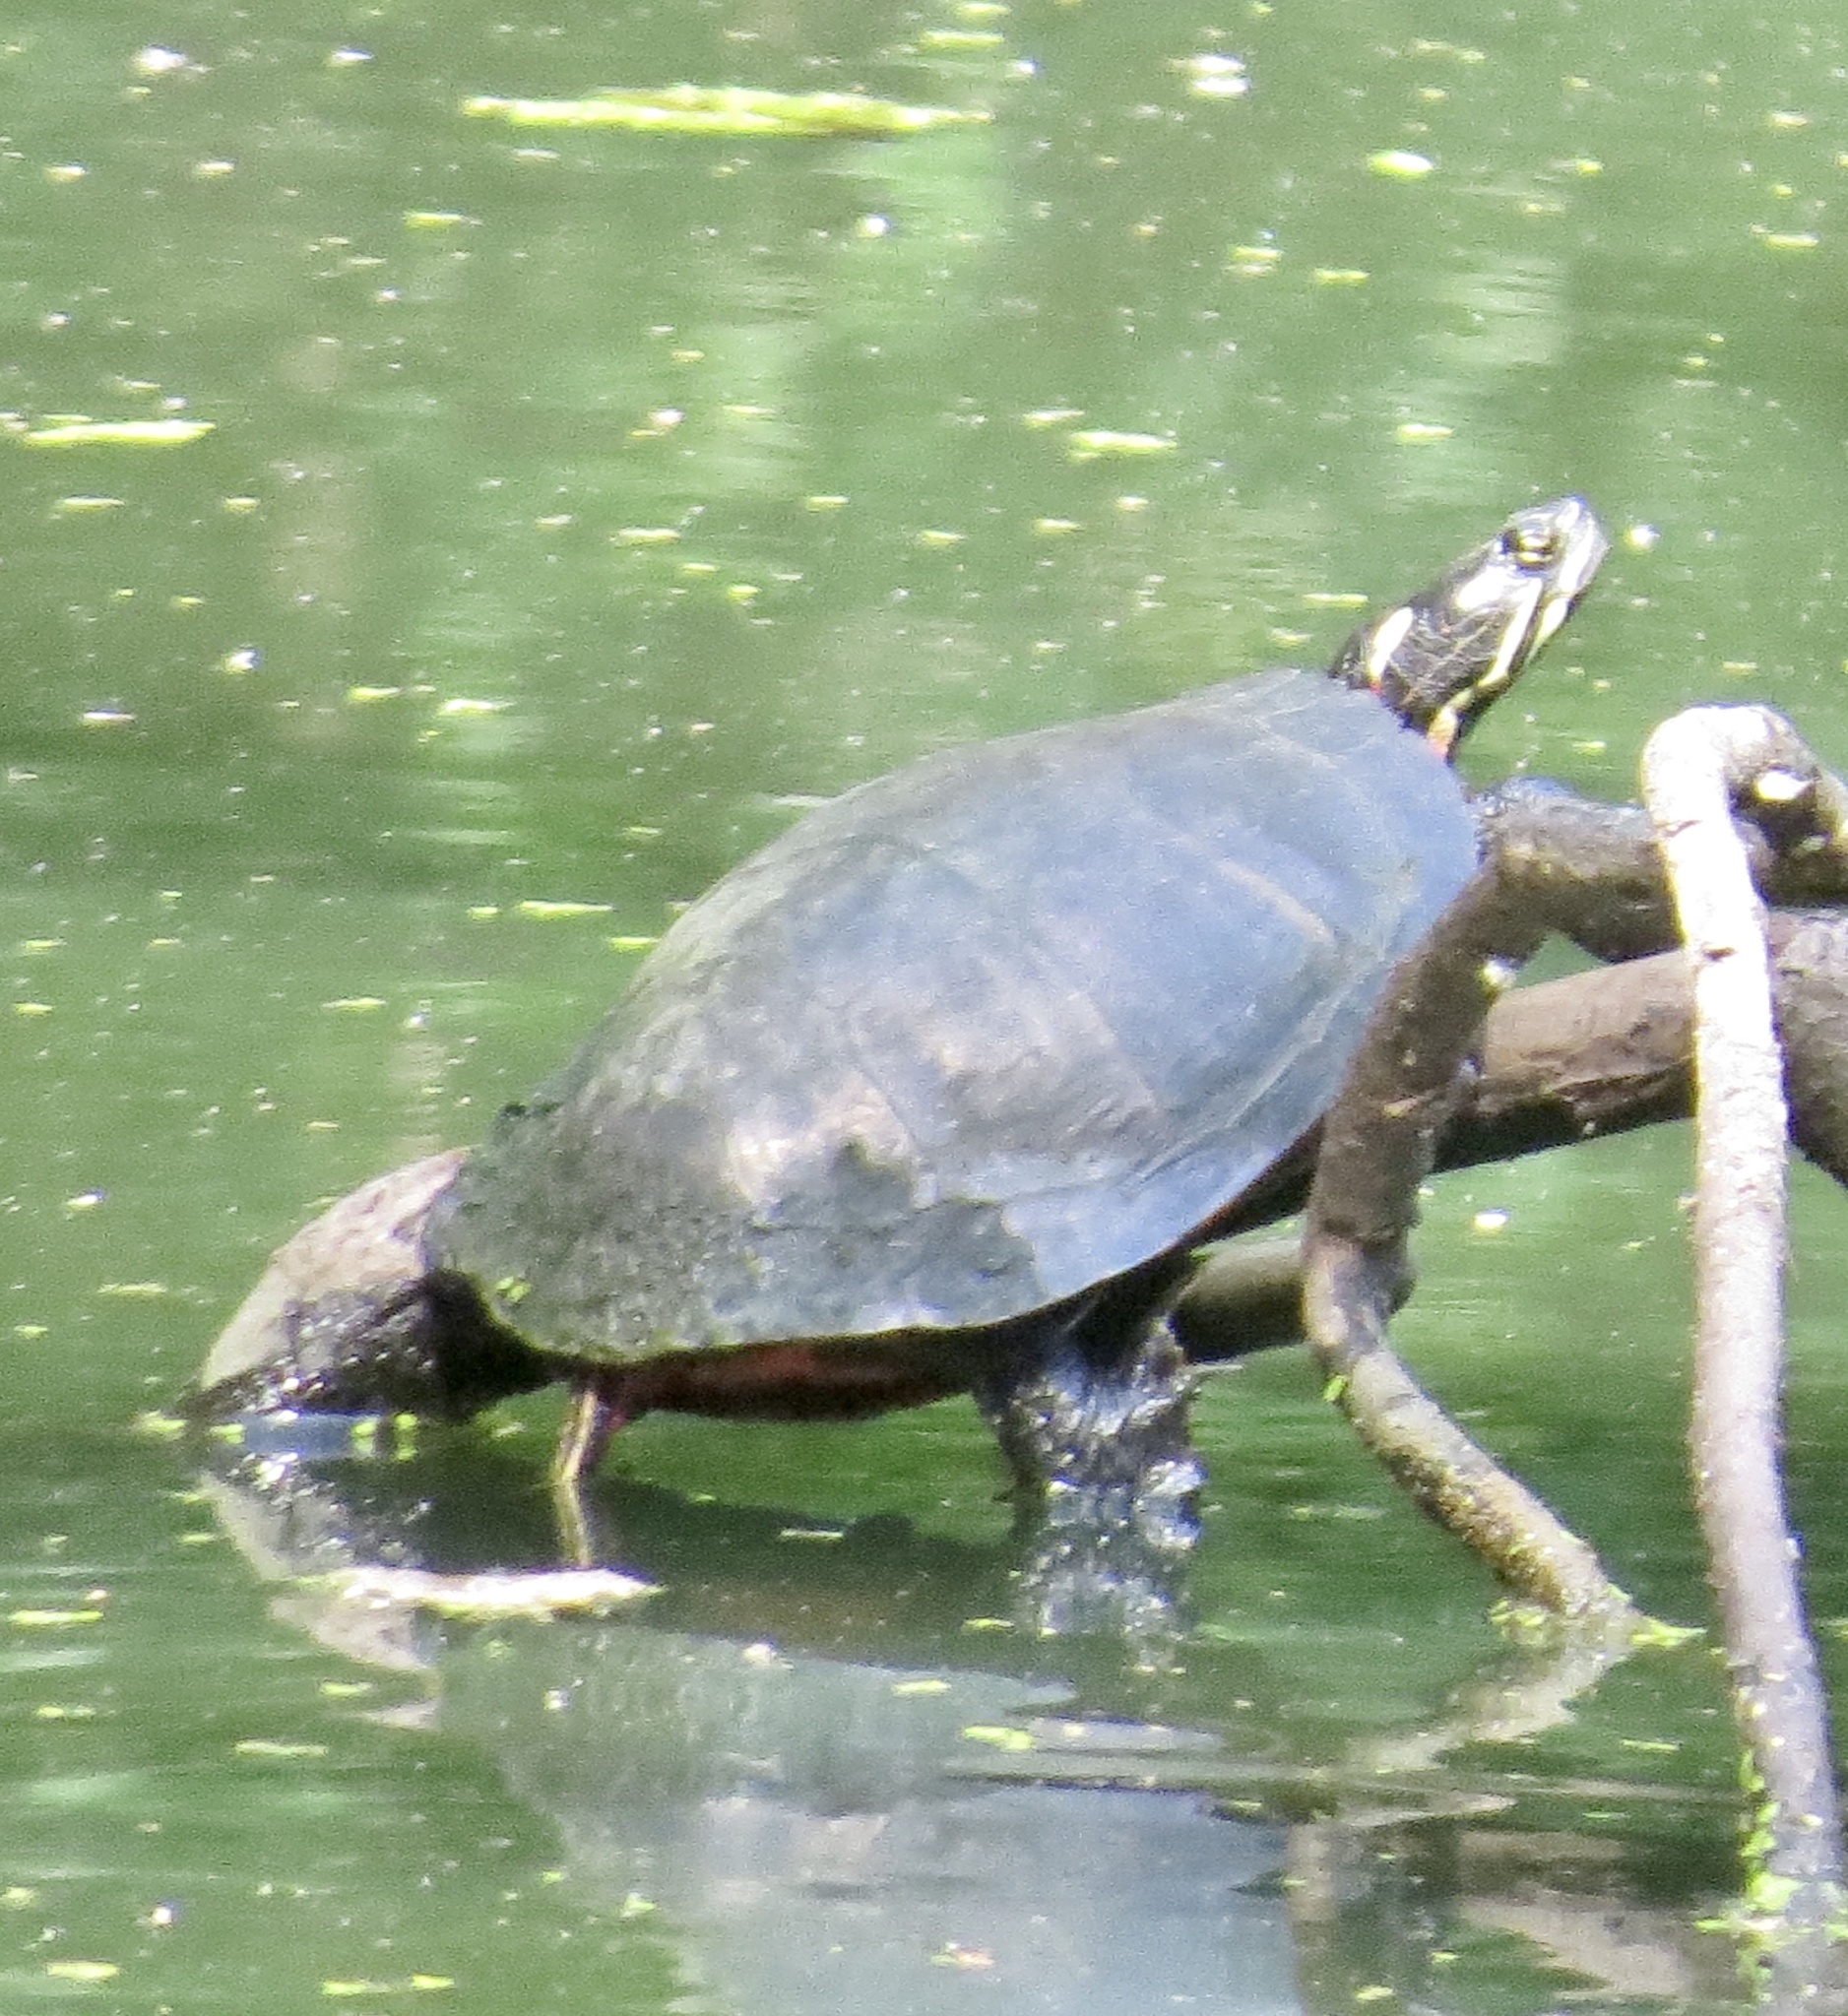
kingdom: Animalia
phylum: Chordata
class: Testudines
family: Emydidae
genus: Chrysemys
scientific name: Chrysemys picta
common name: Painted turtle
